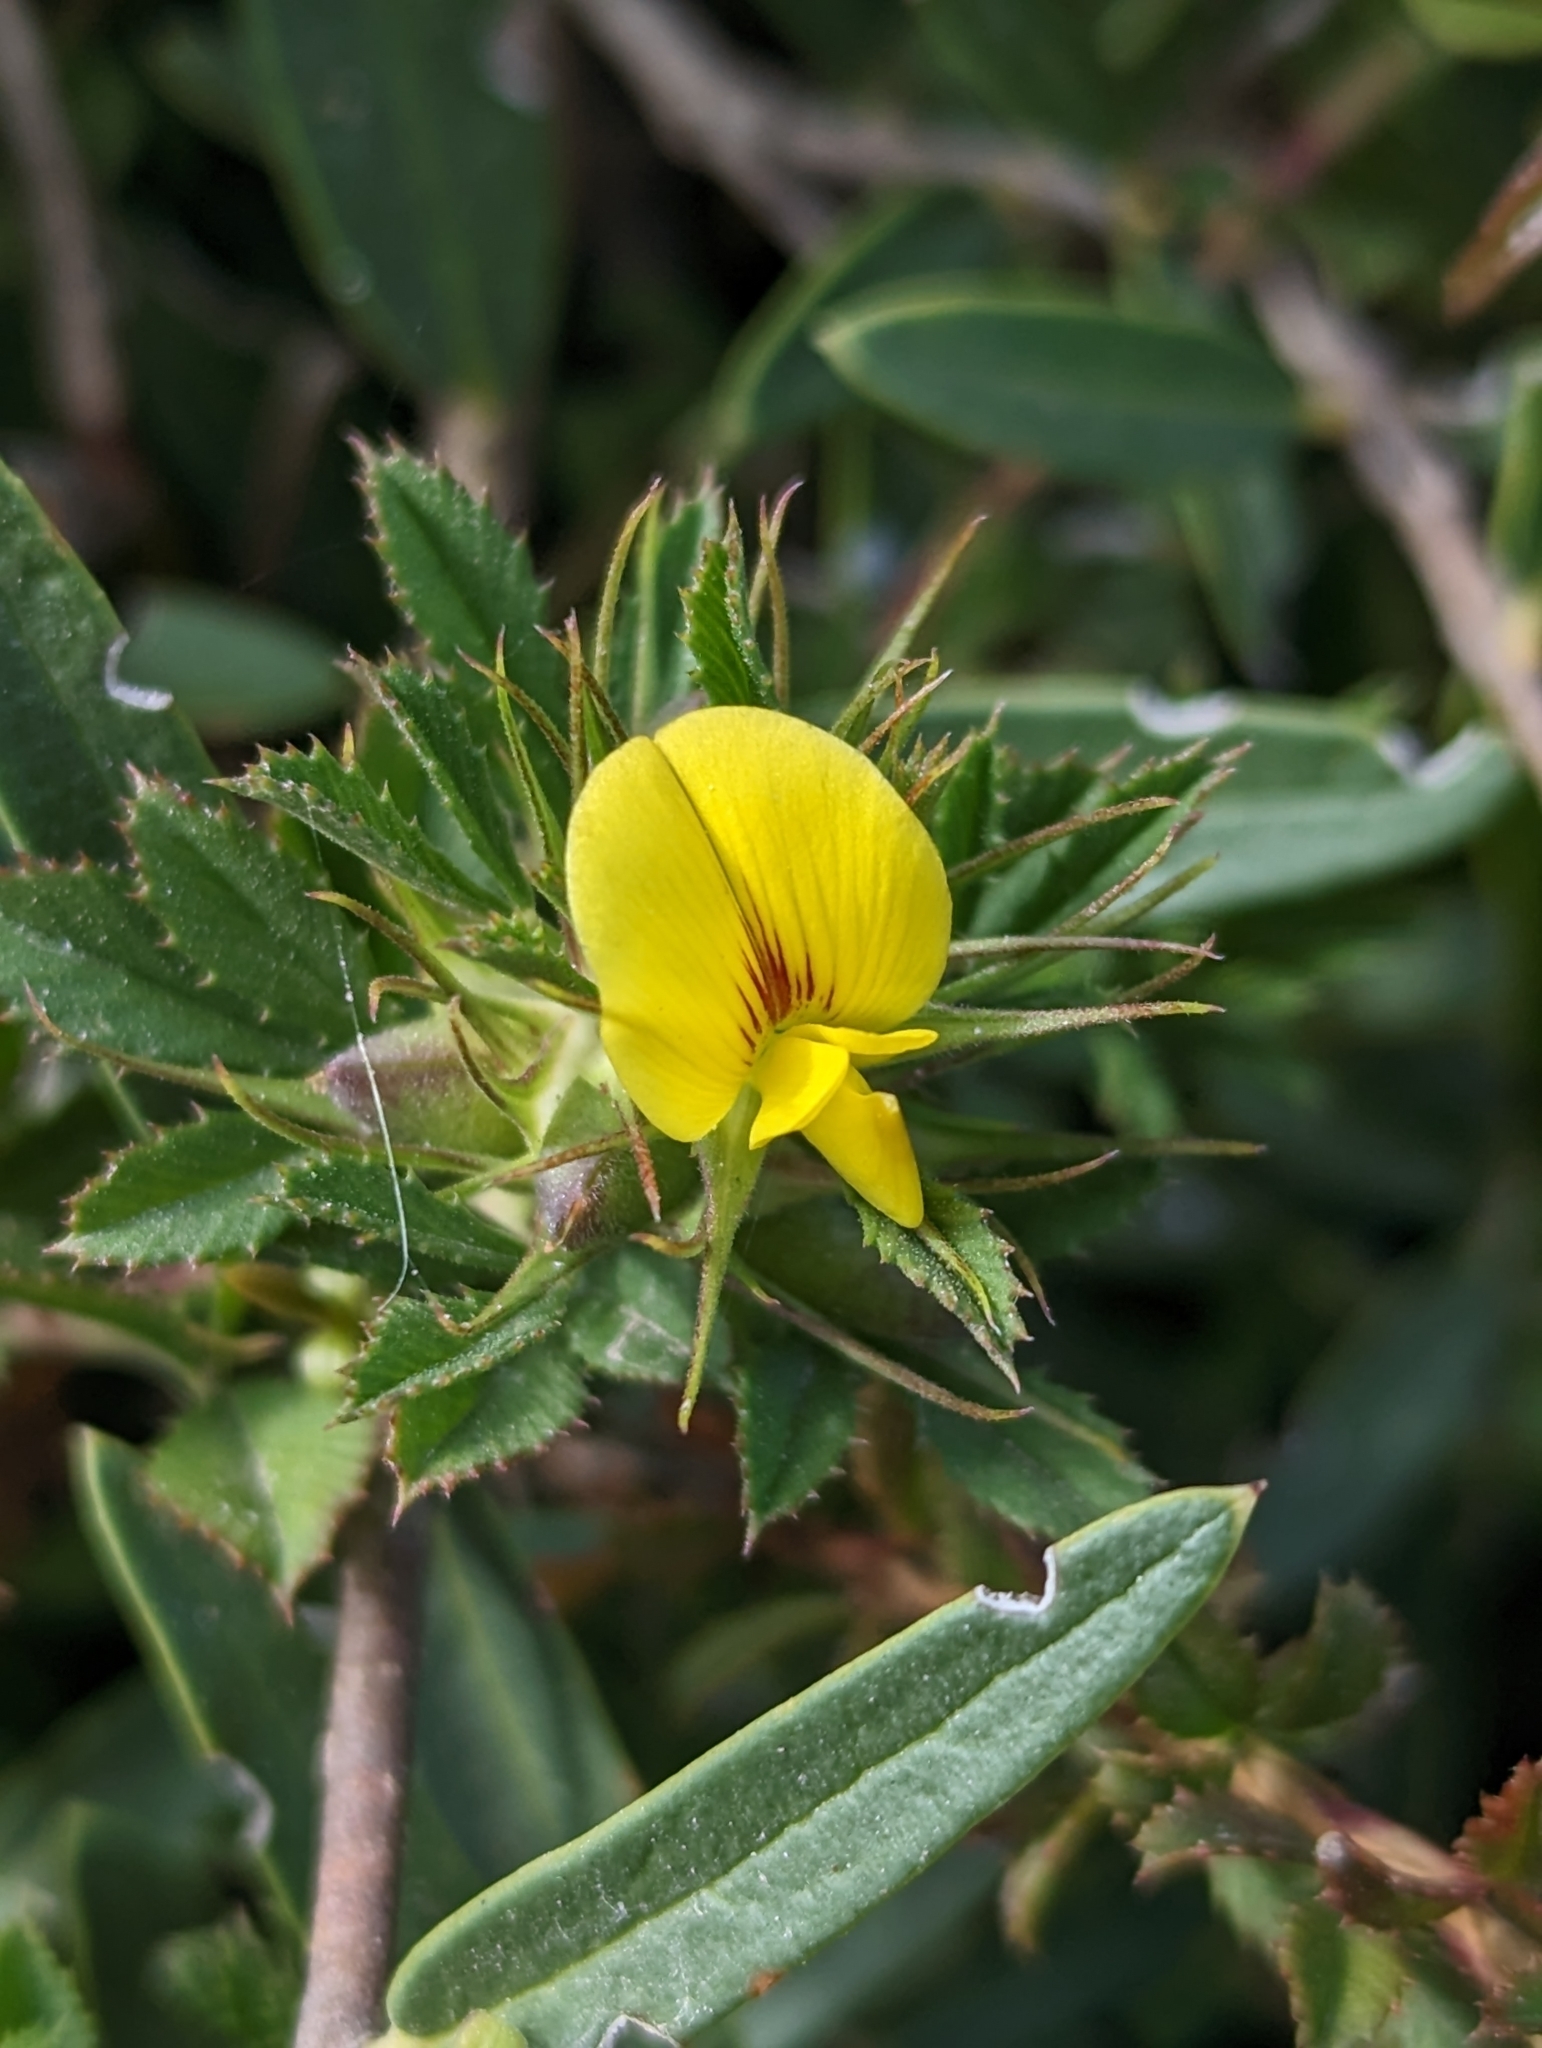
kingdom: Plantae
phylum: Tracheophyta
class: Magnoliopsida
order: Fabales
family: Fabaceae
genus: Ononis
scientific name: Ononis minutissima
